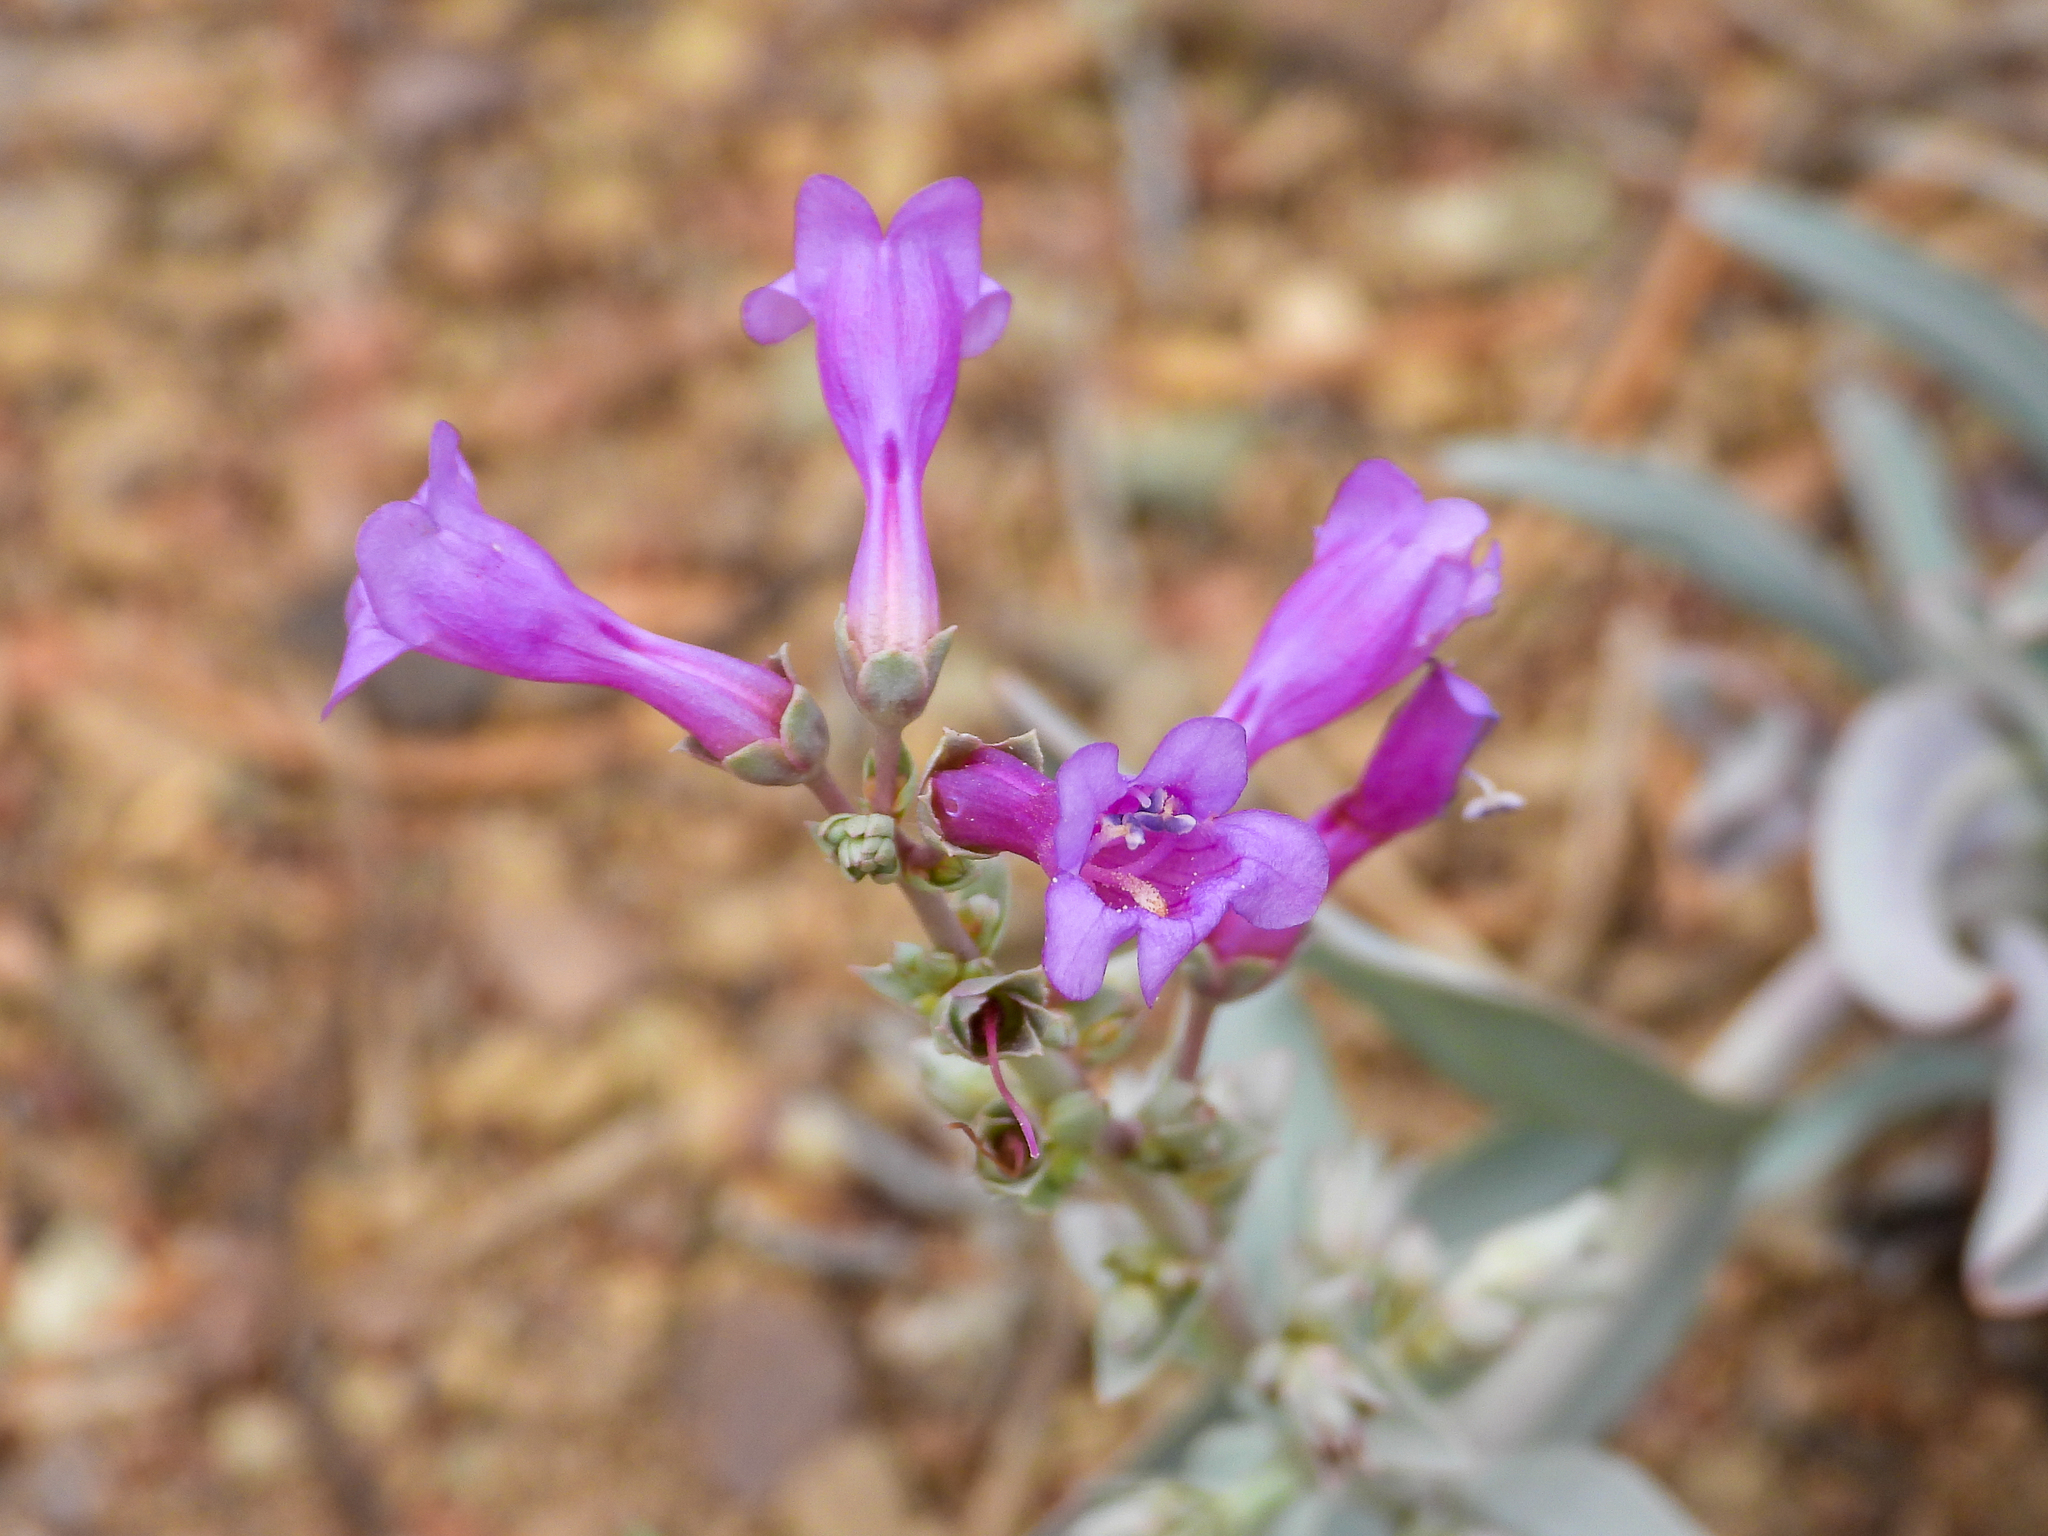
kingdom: Plantae
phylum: Tracheophyta
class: Magnoliopsida
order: Lamiales
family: Plantaginaceae
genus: Penstemon
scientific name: Penstemon patens
